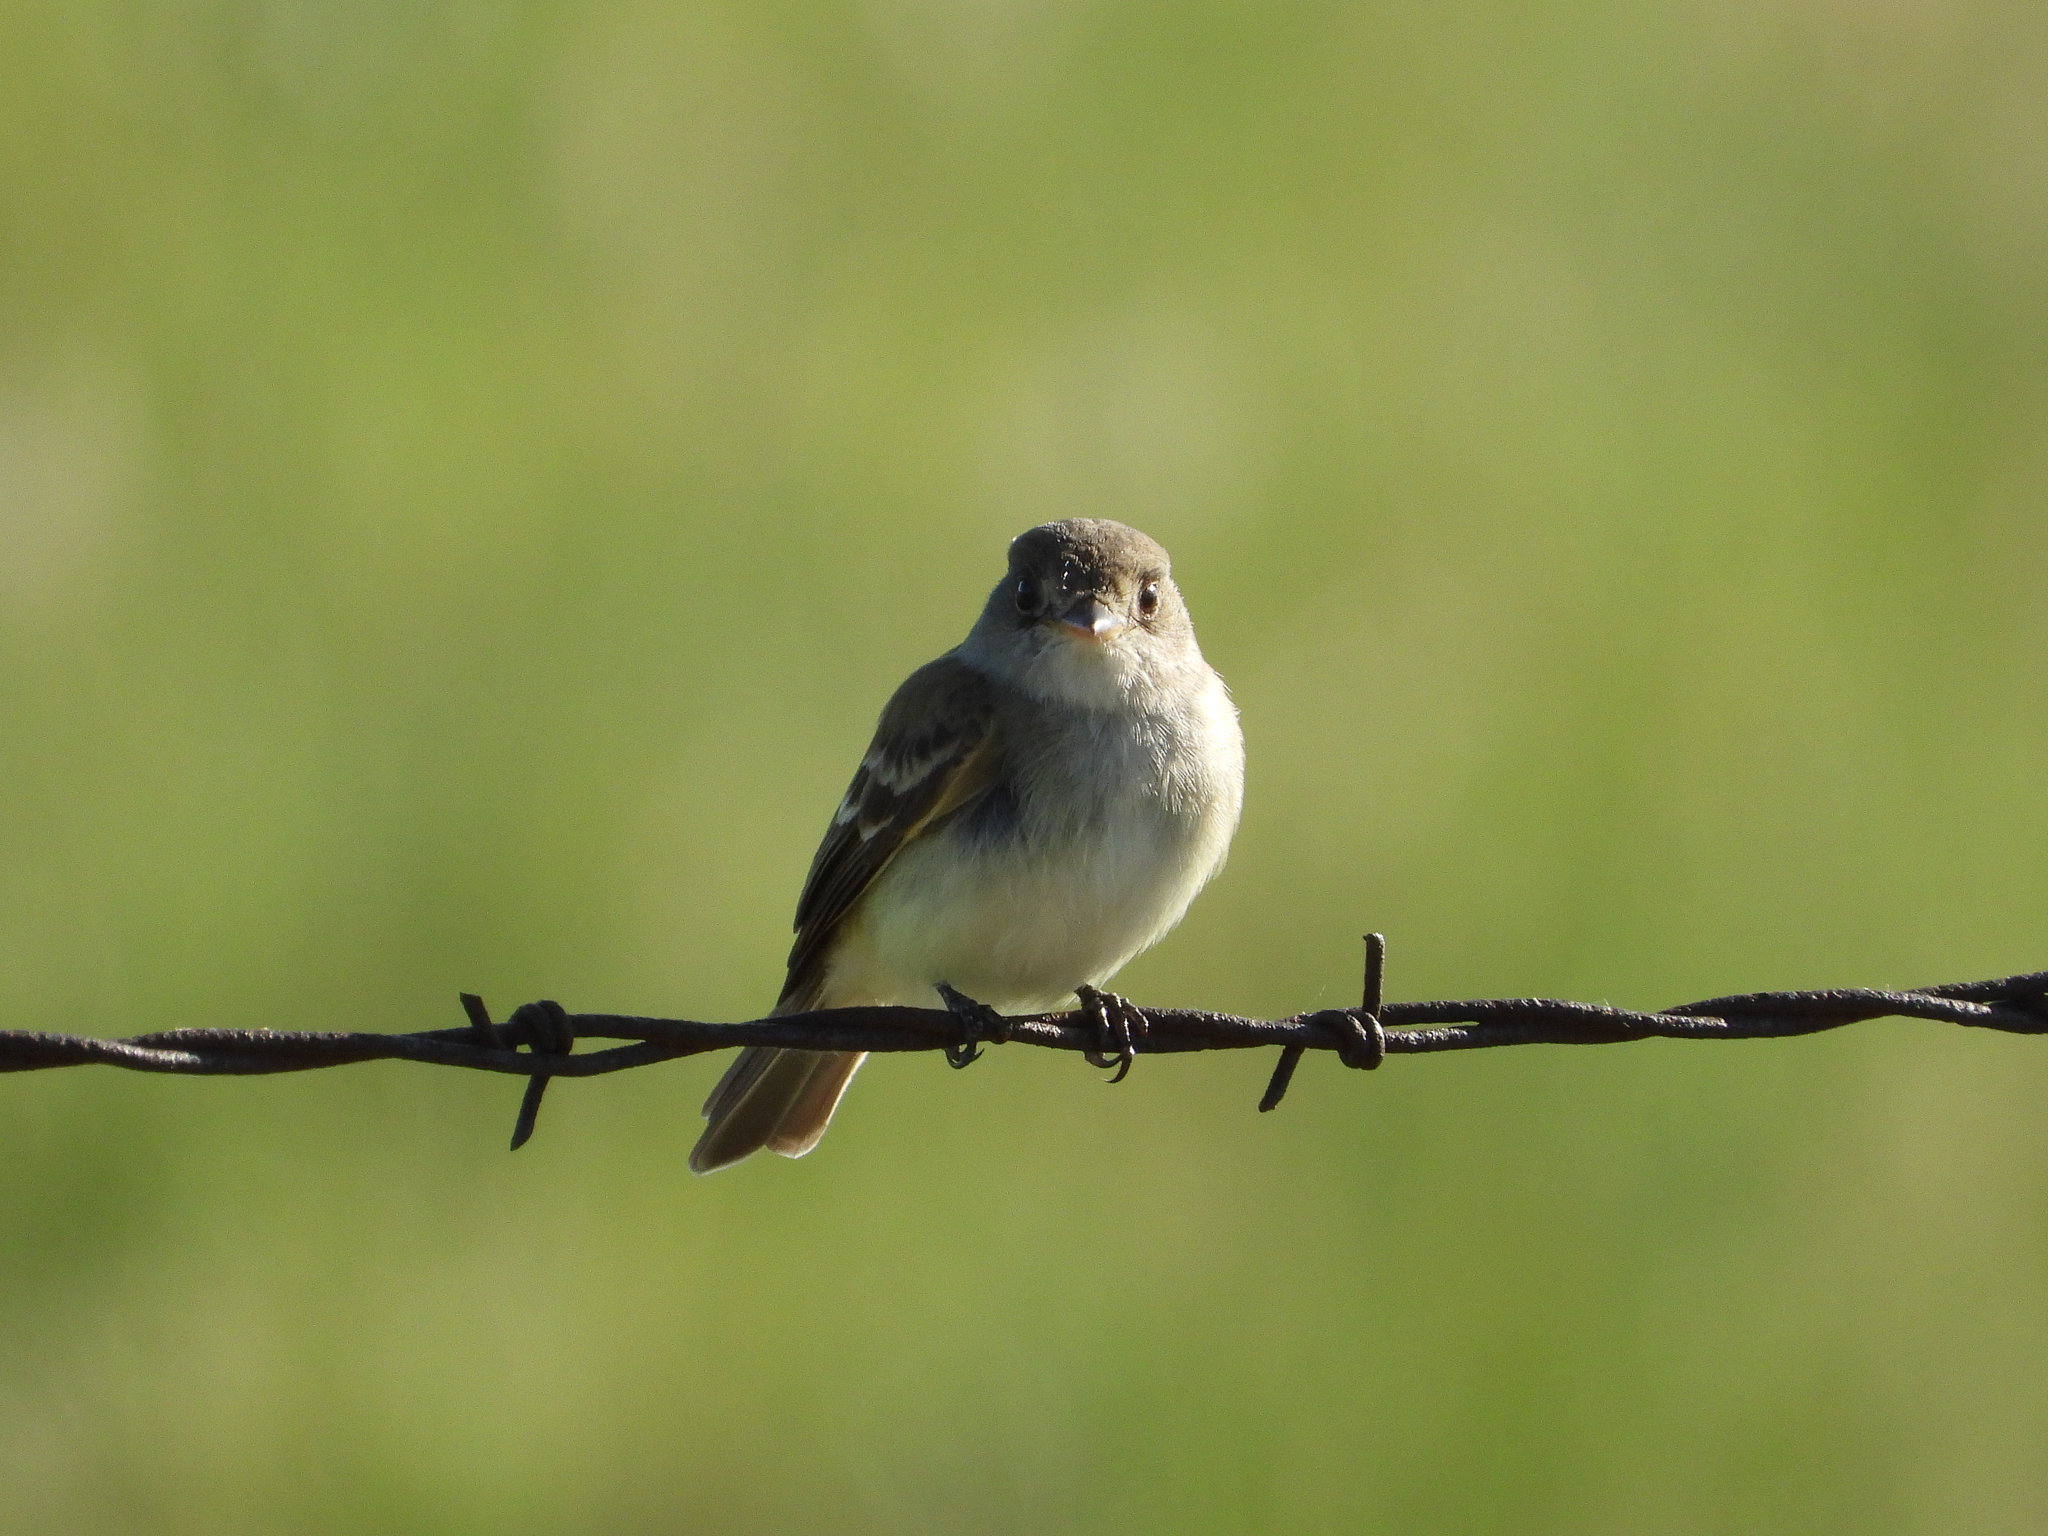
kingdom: Animalia
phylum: Chordata
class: Aves
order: Passeriformes
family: Tyrannidae
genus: Empidonax
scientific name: Empidonax traillii
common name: Willow flycatcher
